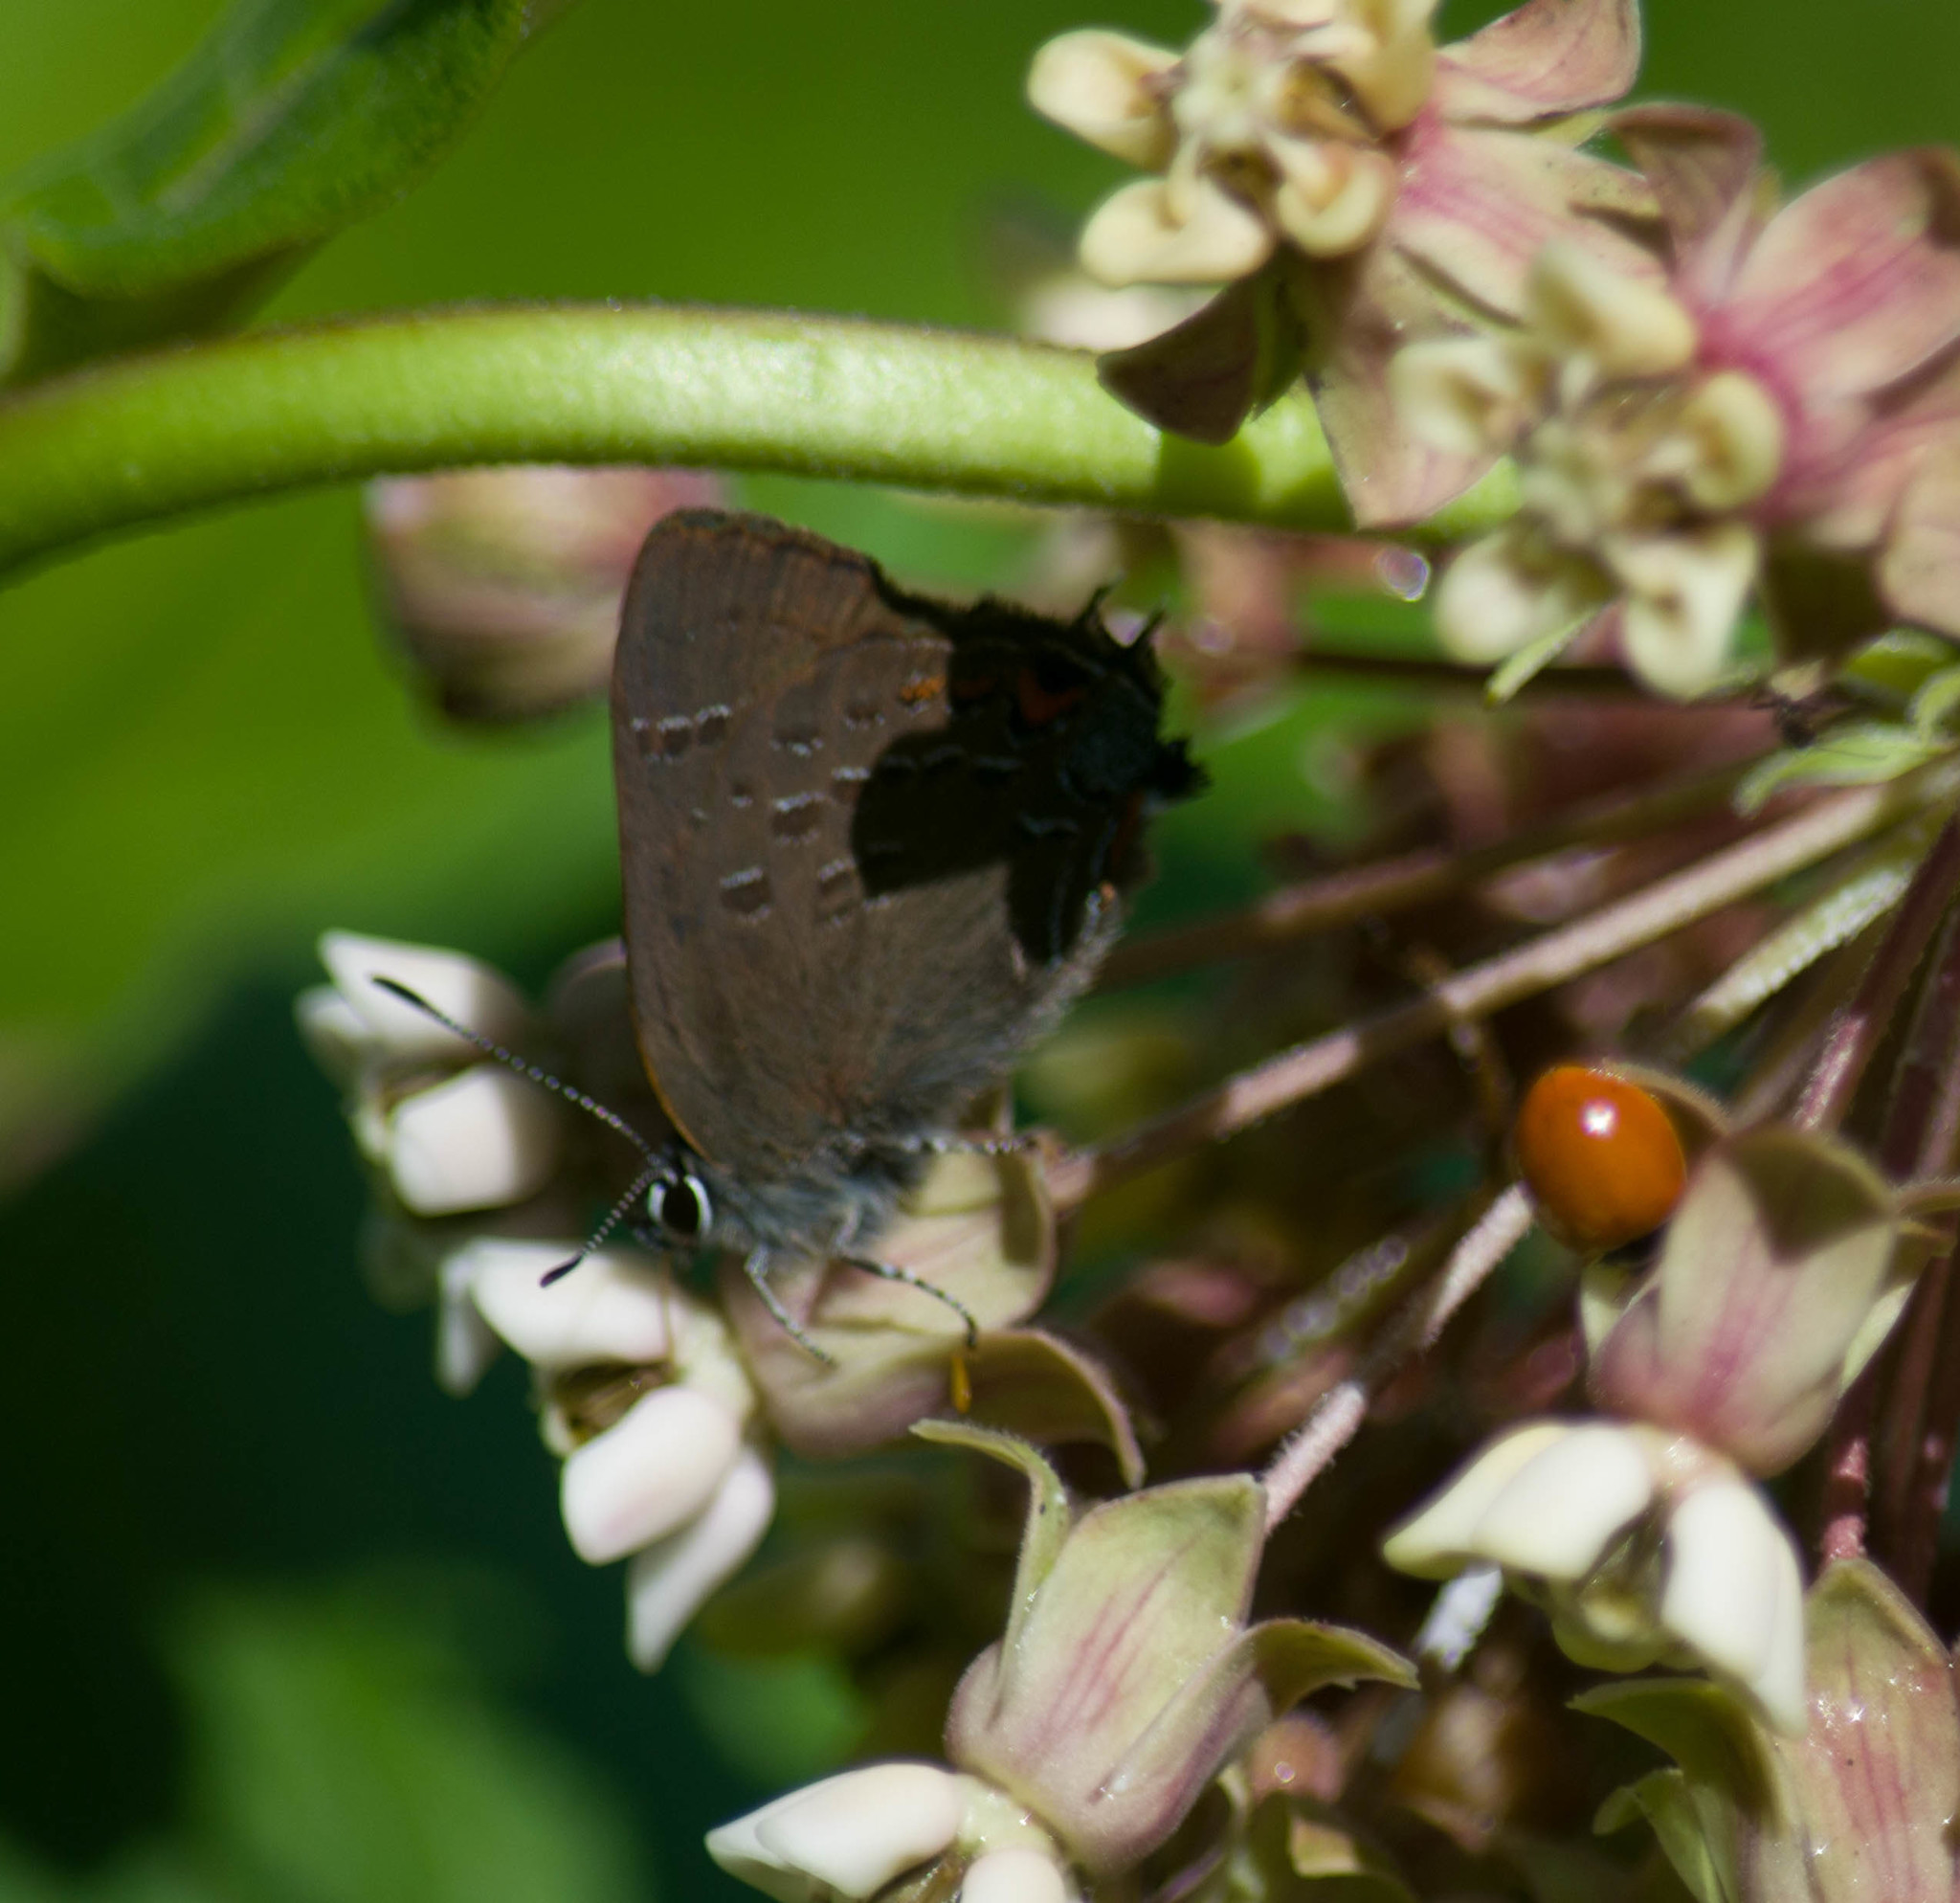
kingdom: Animalia
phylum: Arthropoda
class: Insecta
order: Lepidoptera
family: Lycaenidae
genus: Satyrium
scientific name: Satyrium calanus
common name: Banded hairstreak
